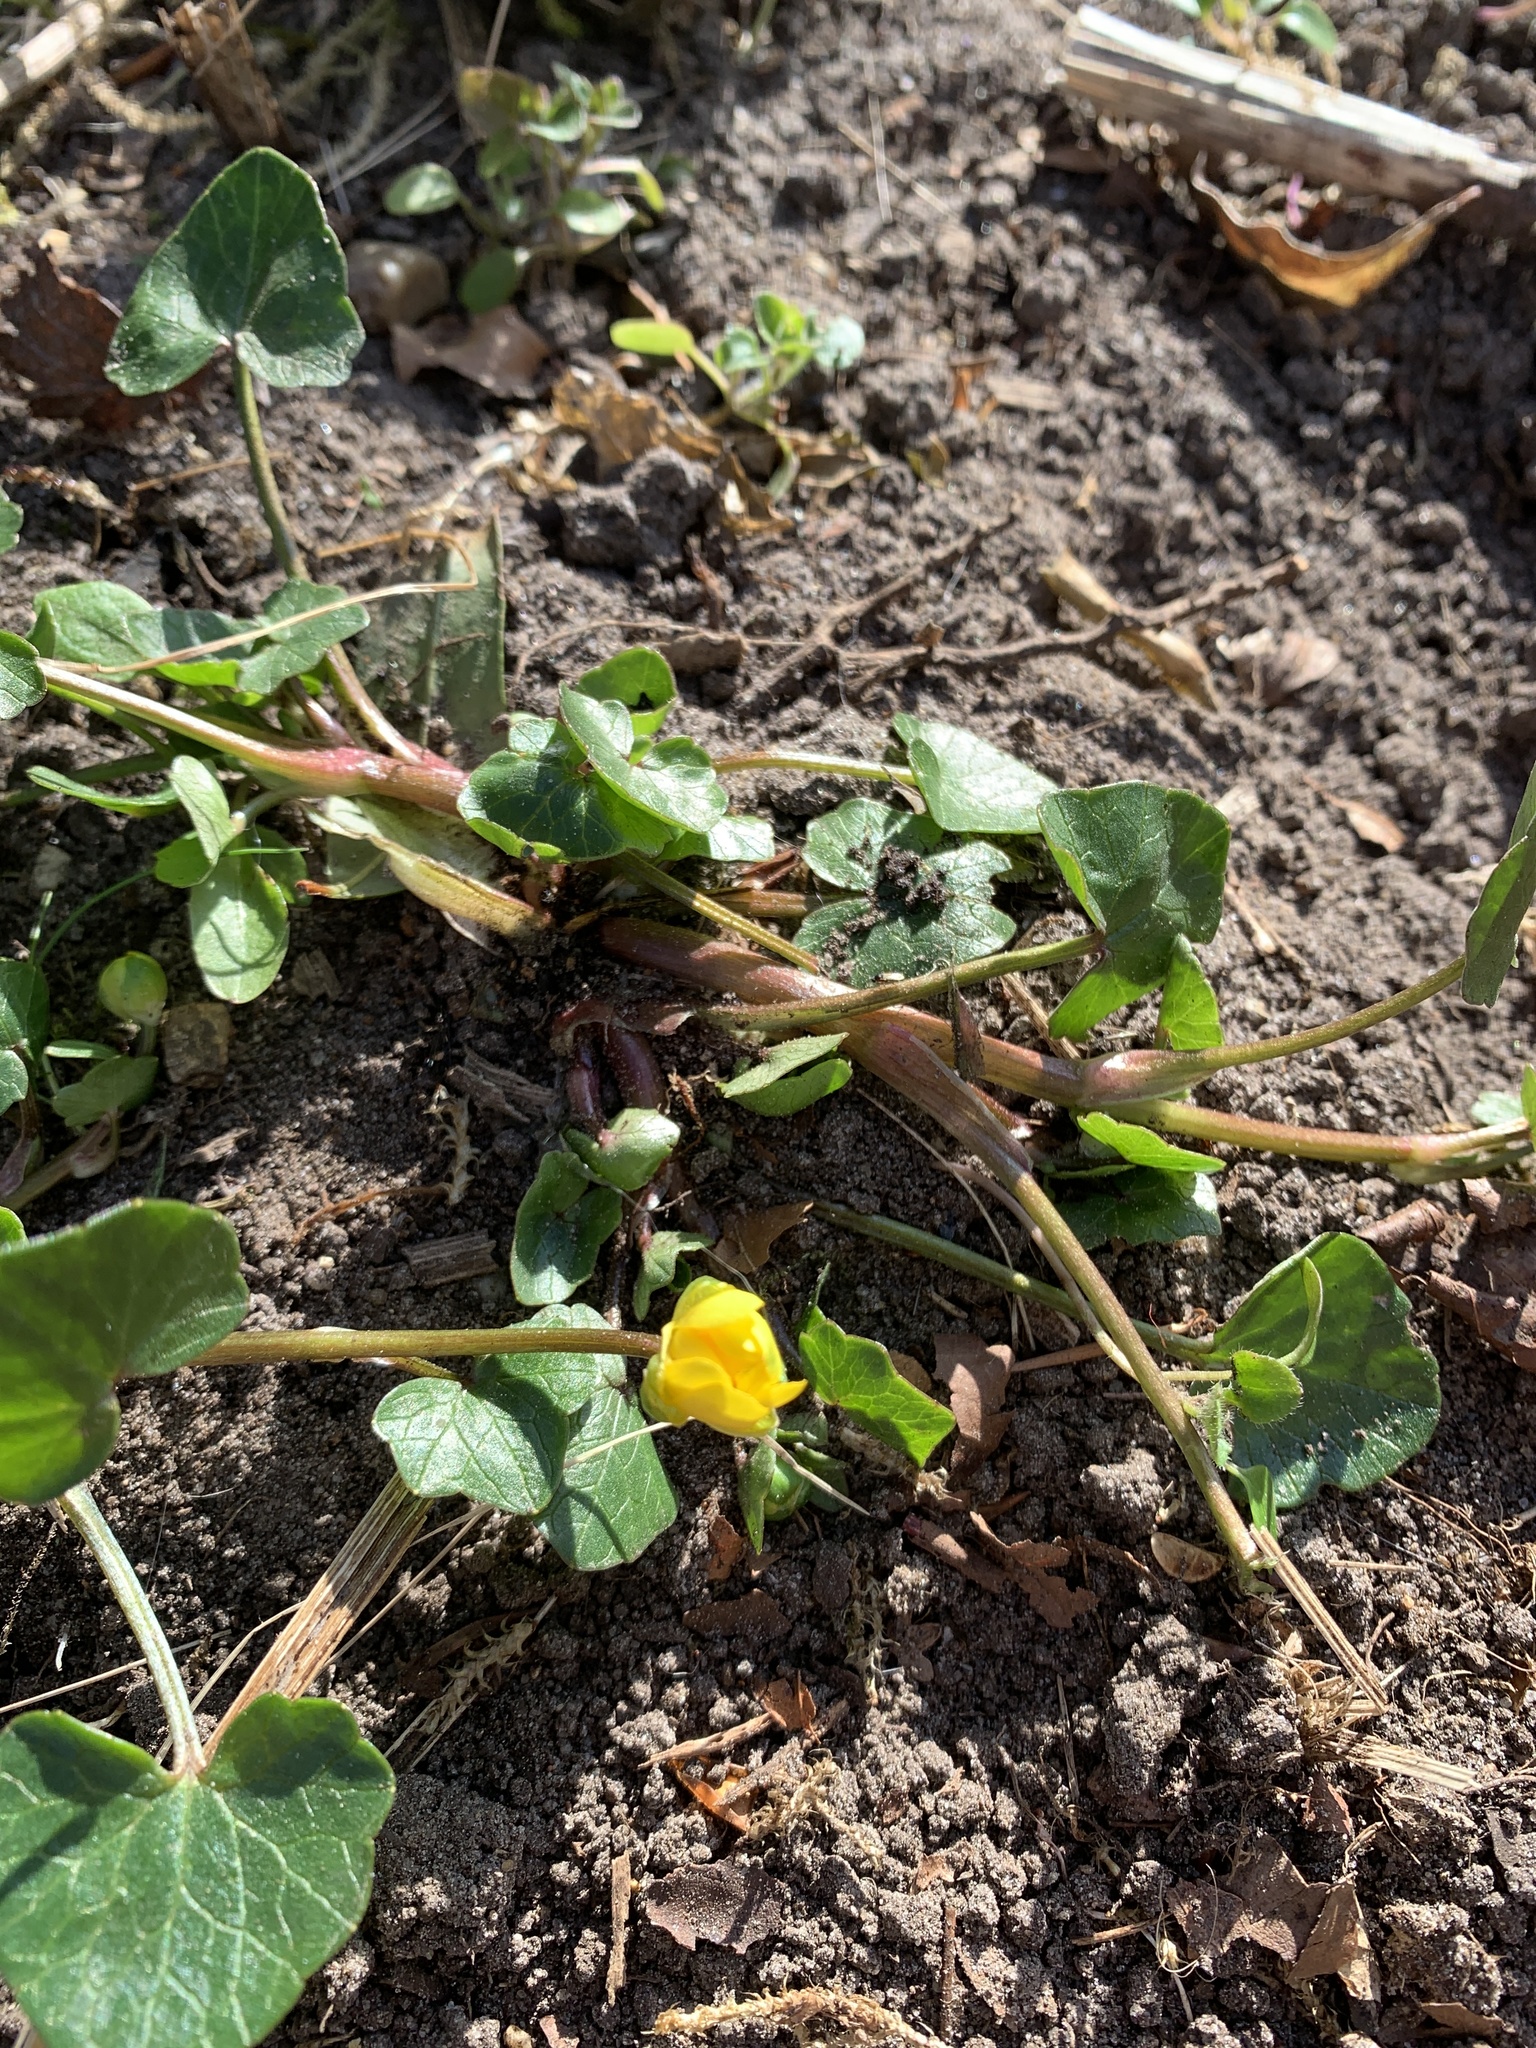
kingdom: Plantae
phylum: Tracheophyta
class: Magnoliopsida
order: Ranunculales
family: Ranunculaceae
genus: Ficaria
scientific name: Ficaria verna
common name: Lesser celandine
